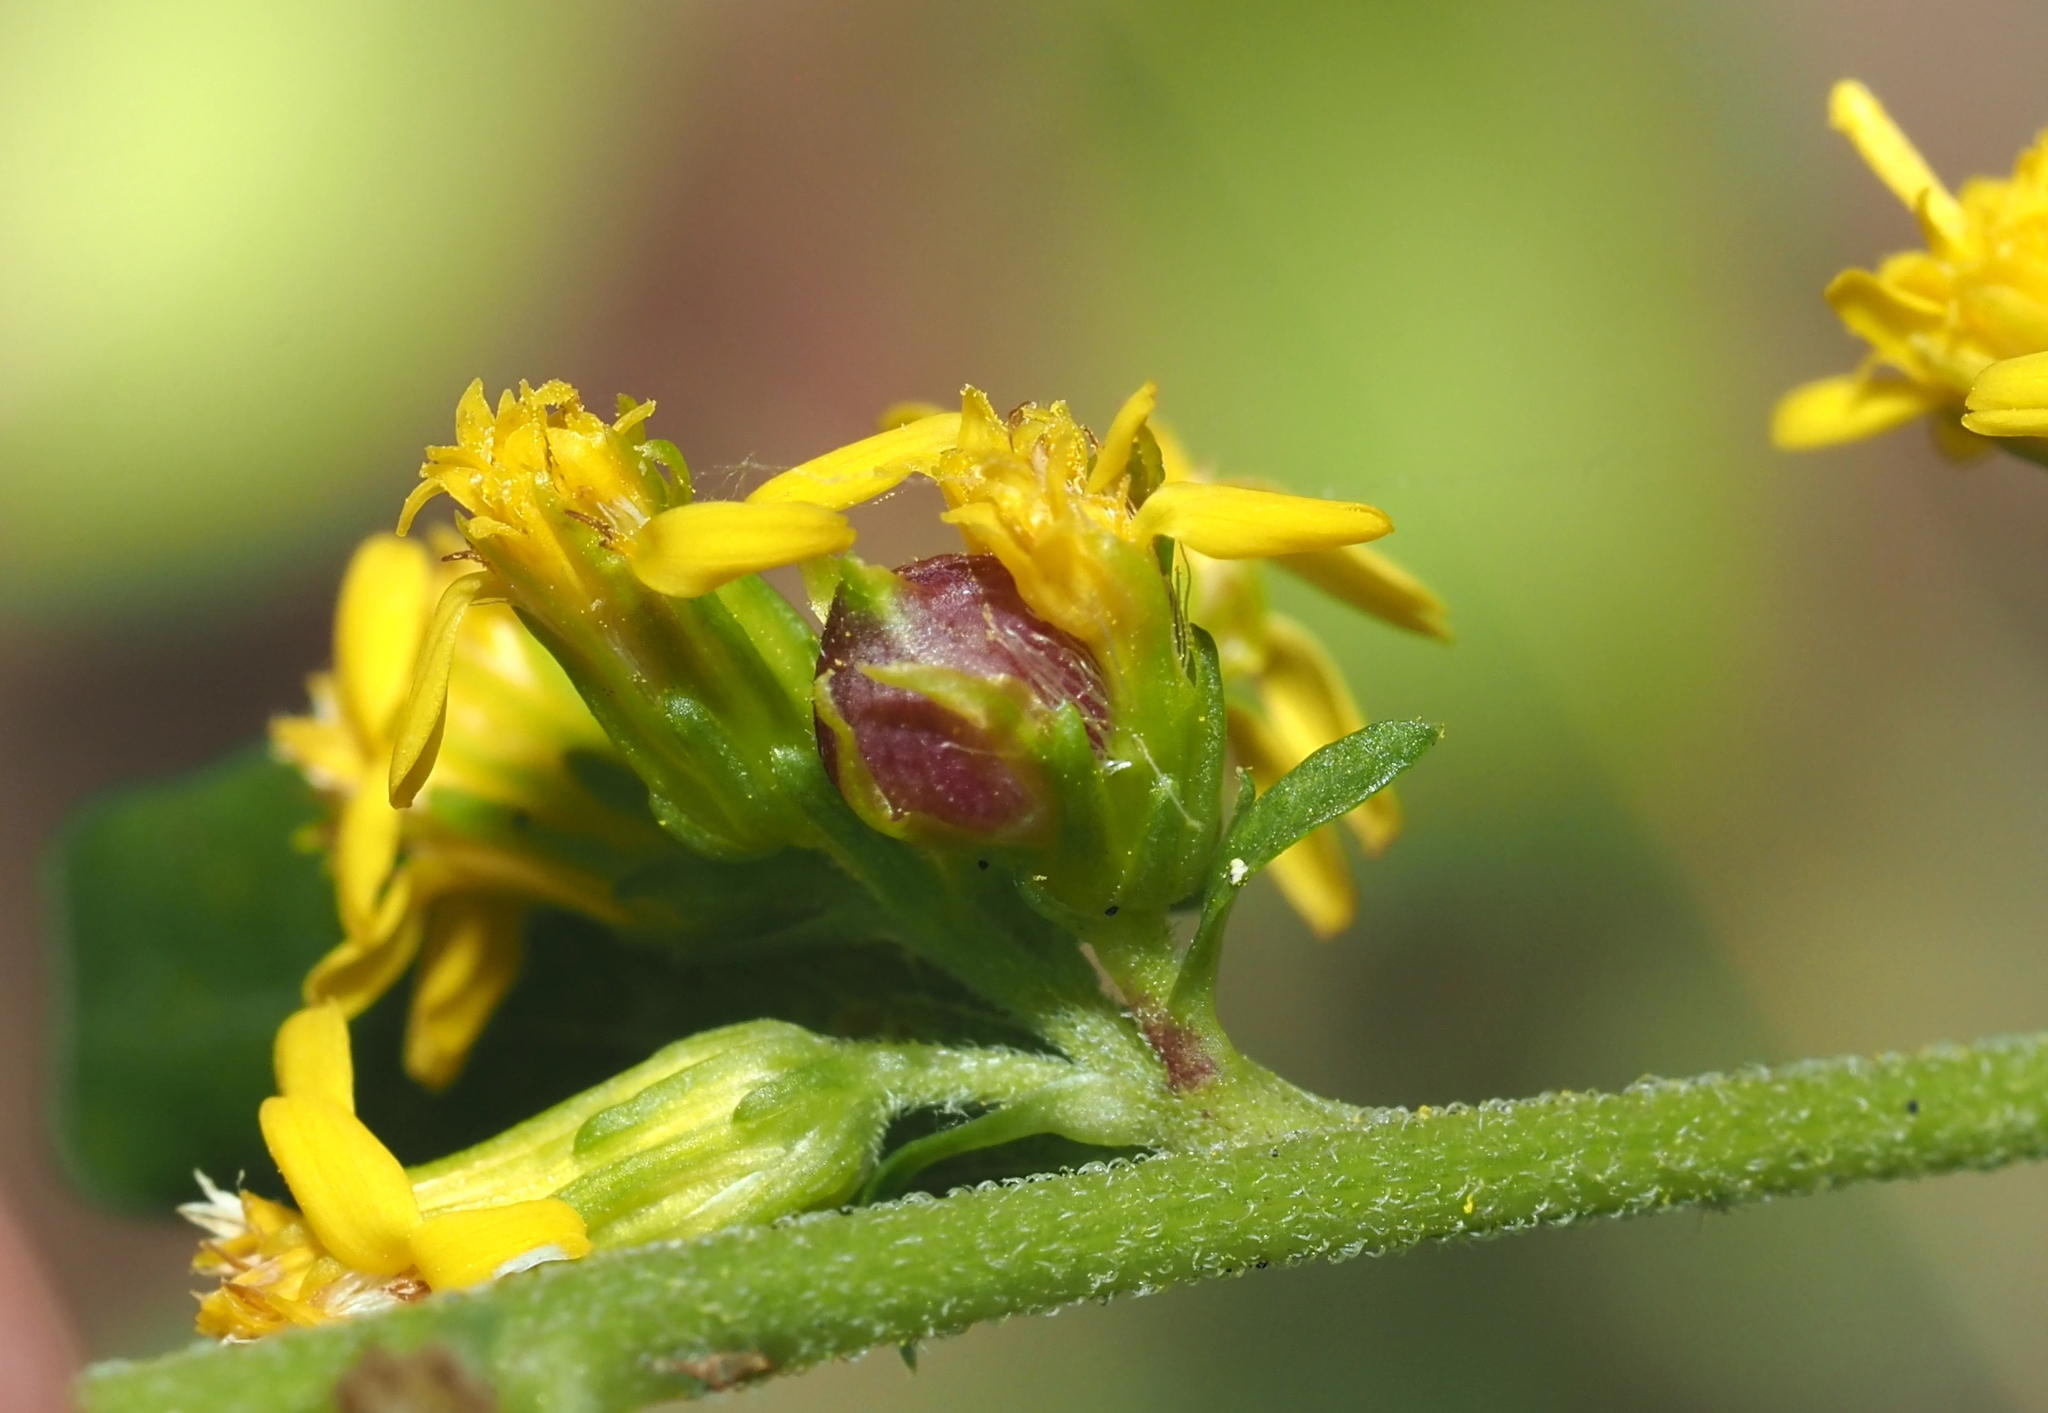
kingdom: Animalia
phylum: Arthropoda
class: Insecta
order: Diptera
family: Cecidomyiidae
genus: Schizomyia
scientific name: Schizomyia racemicola
